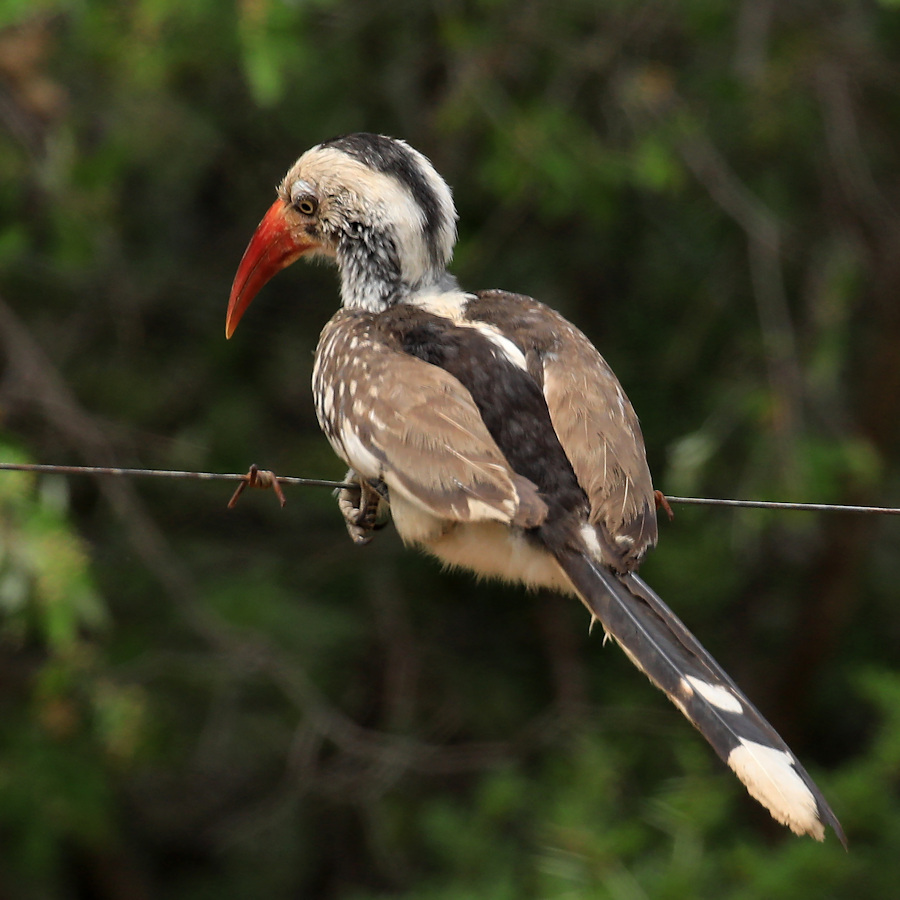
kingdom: Animalia
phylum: Chordata
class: Aves
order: Bucerotiformes
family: Bucerotidae
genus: Tockus
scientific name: Tockus rufirostris
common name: Southern red-billed hornbill
